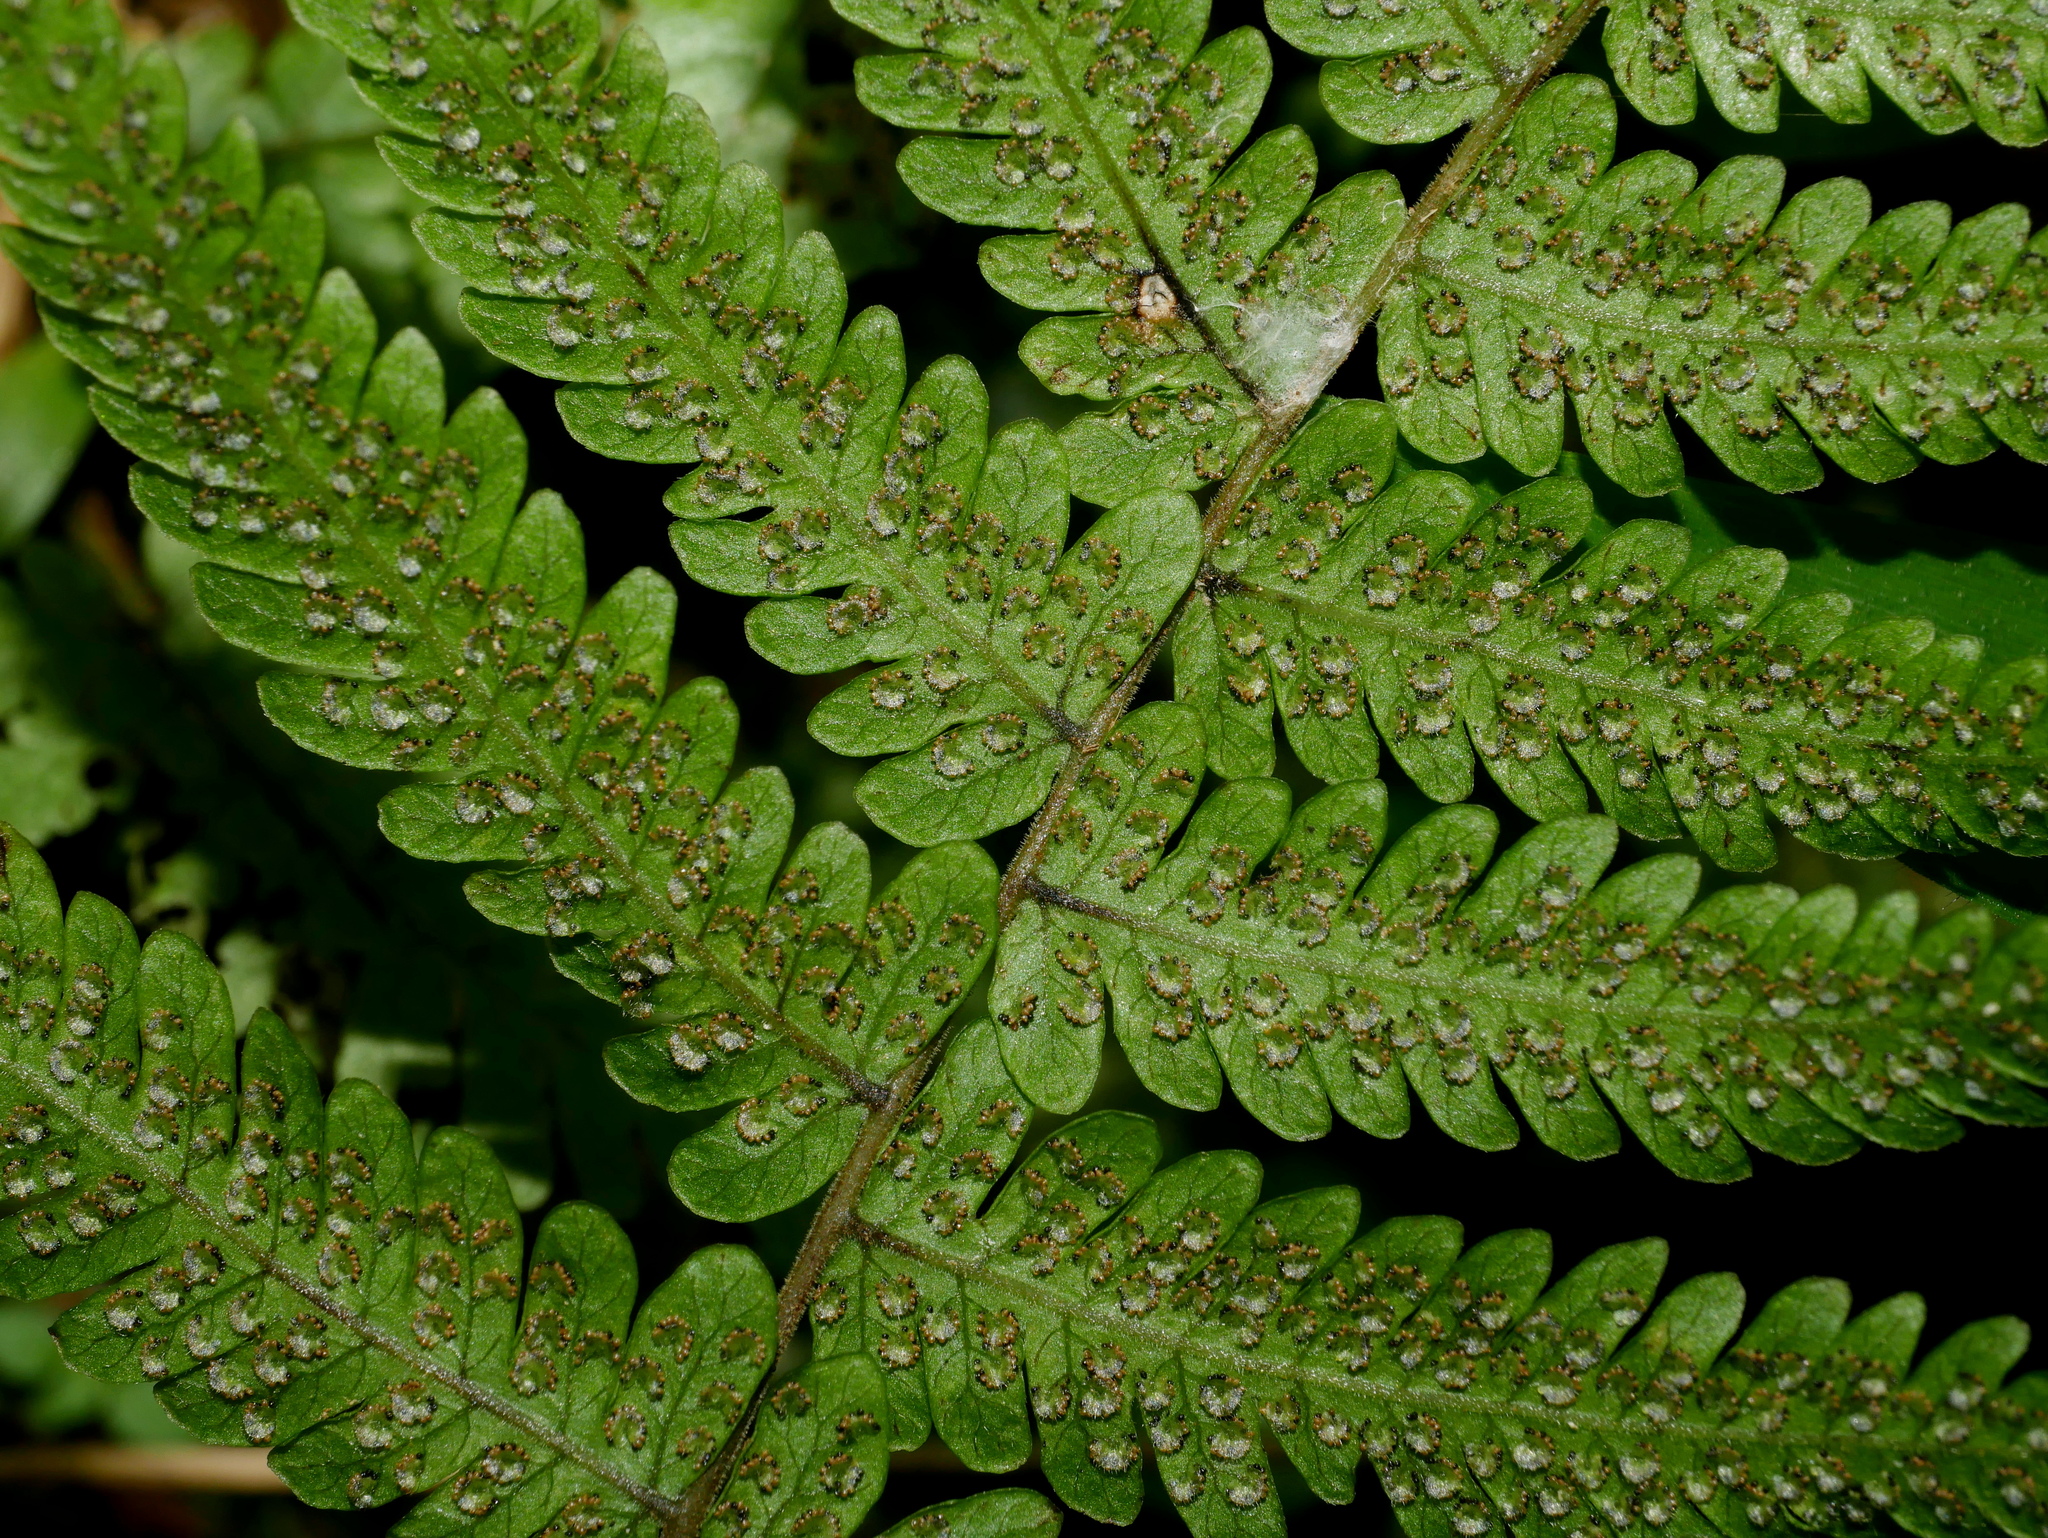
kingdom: Plantae
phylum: Tracheophyta
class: Polypodiopsida
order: Polypodiales
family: Thelypteridaceae
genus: Metathelypteris
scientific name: Metathelypteris uraiensis
